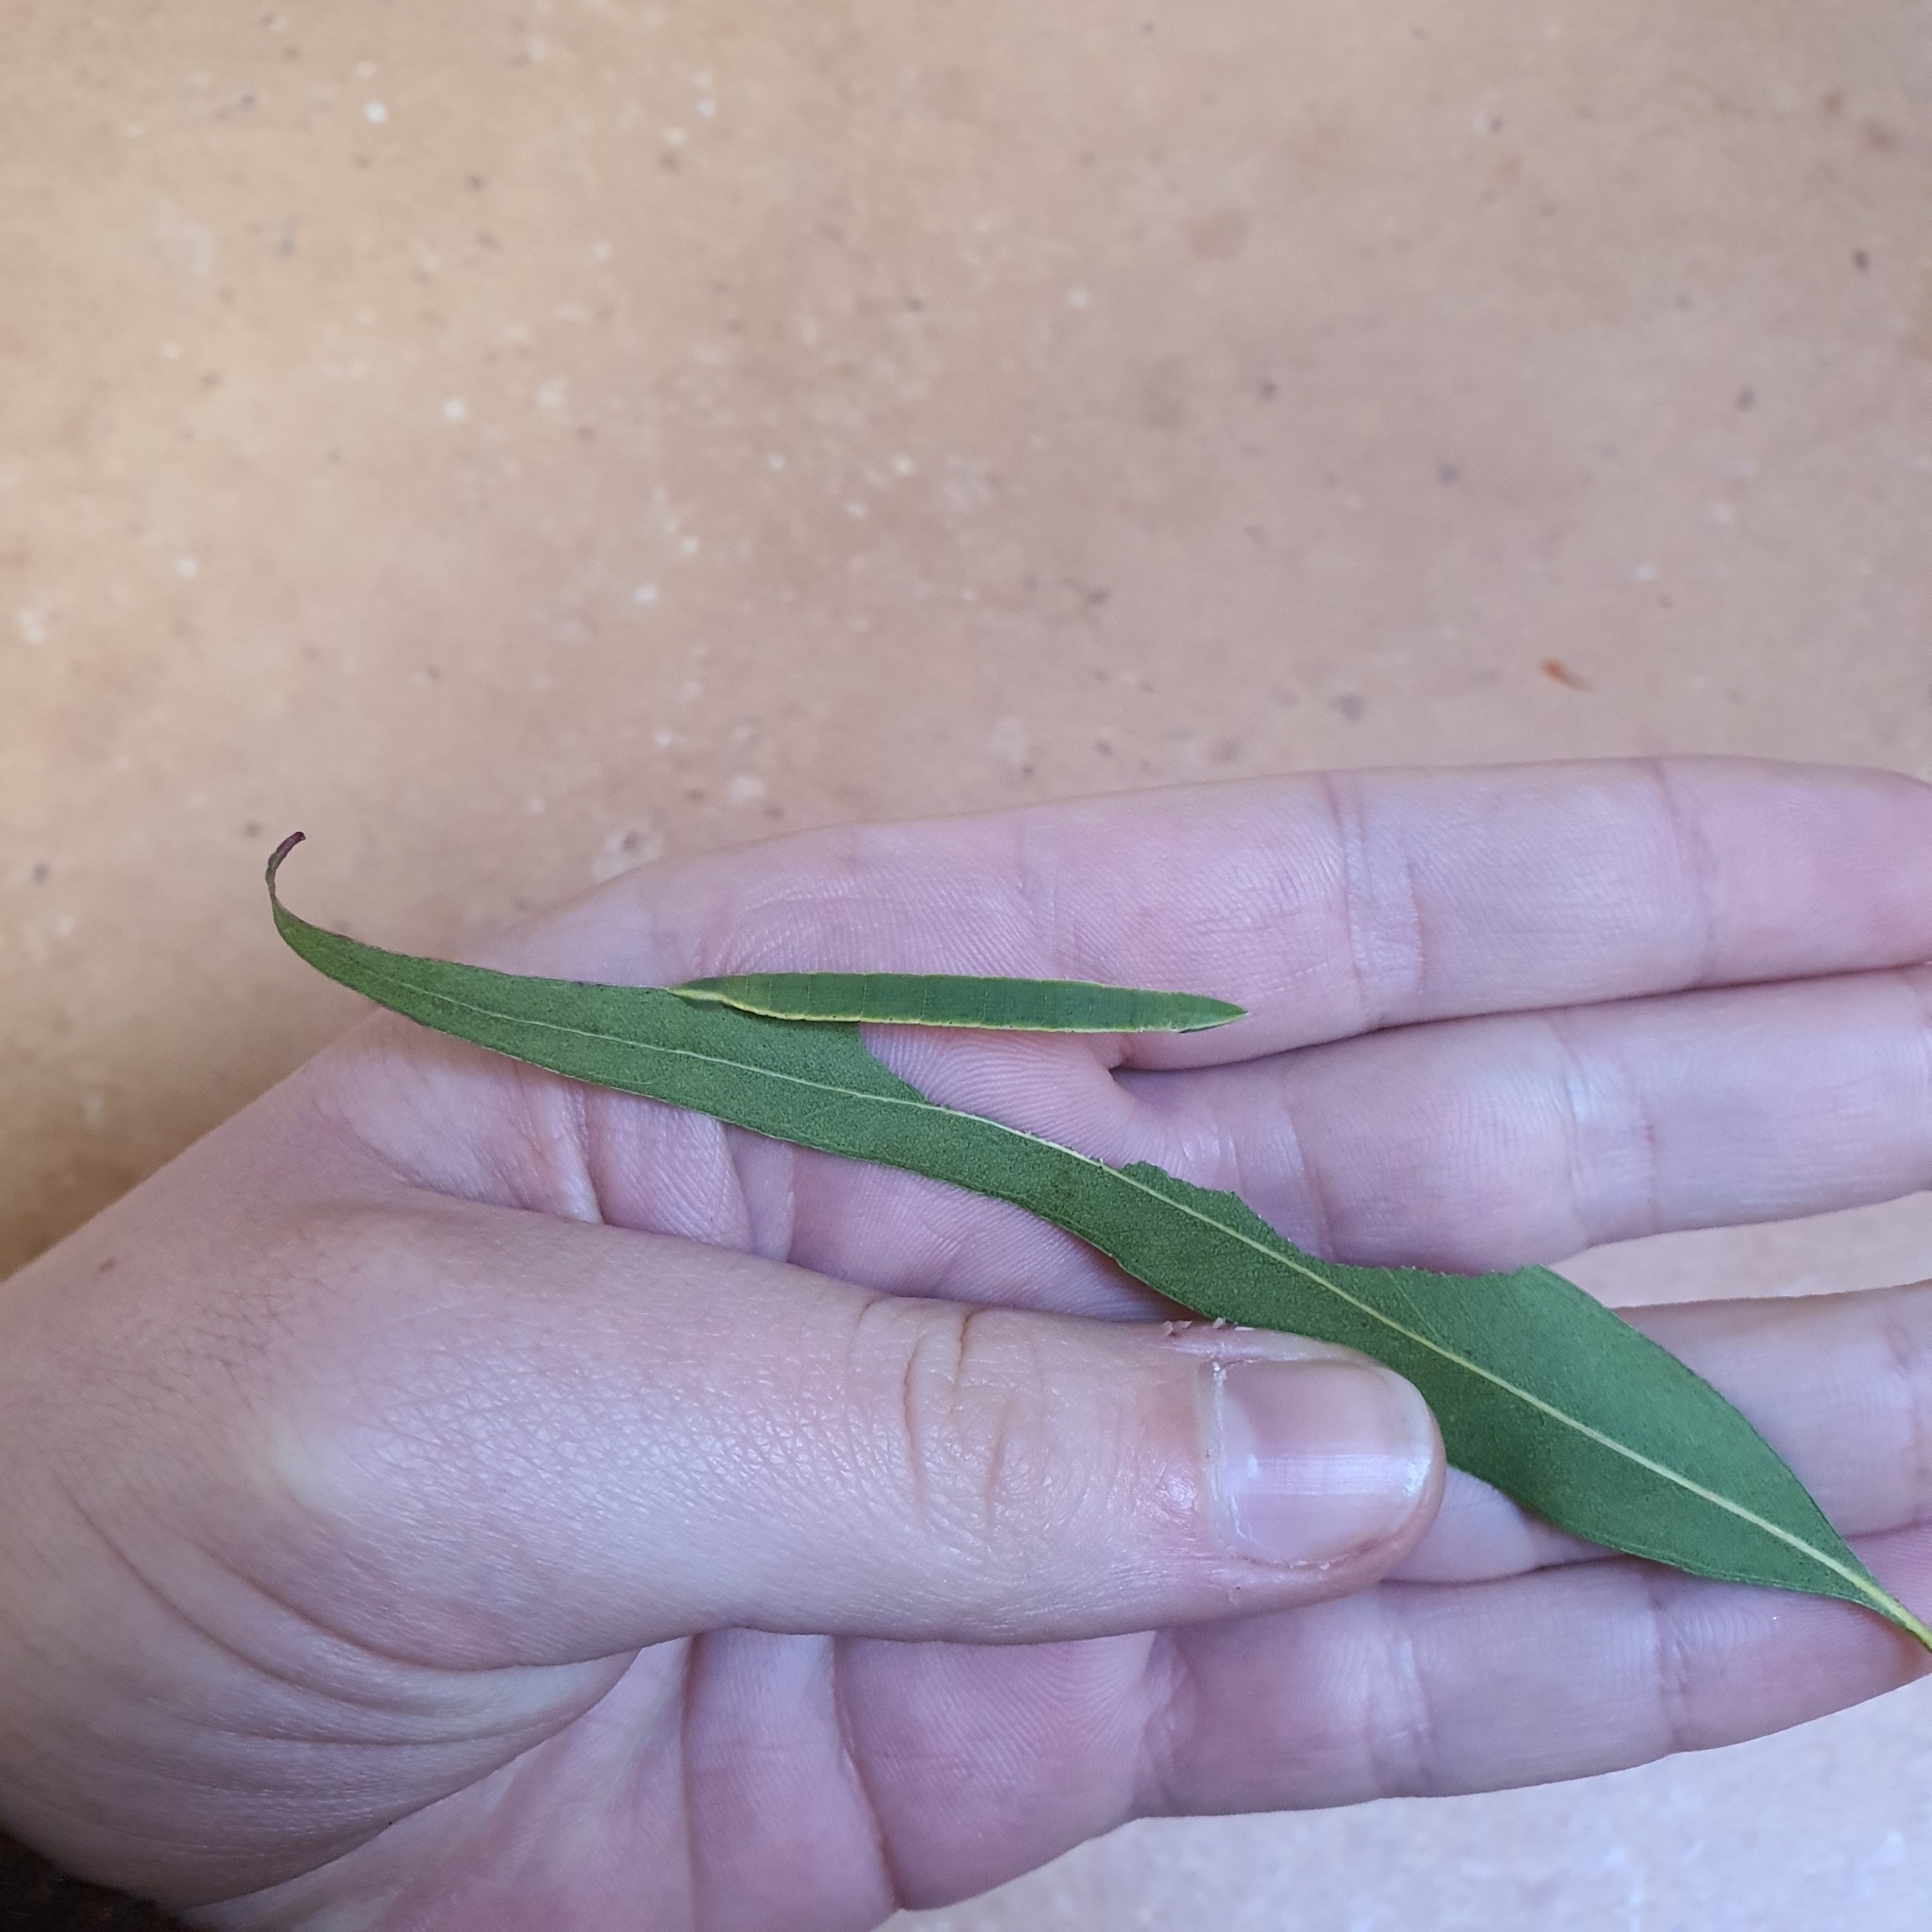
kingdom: Animalia
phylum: Arthropoda
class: Insecta
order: Lepidoptera
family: Geometridae
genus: Crypsiphona
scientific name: Crypsiphona ocultaria
